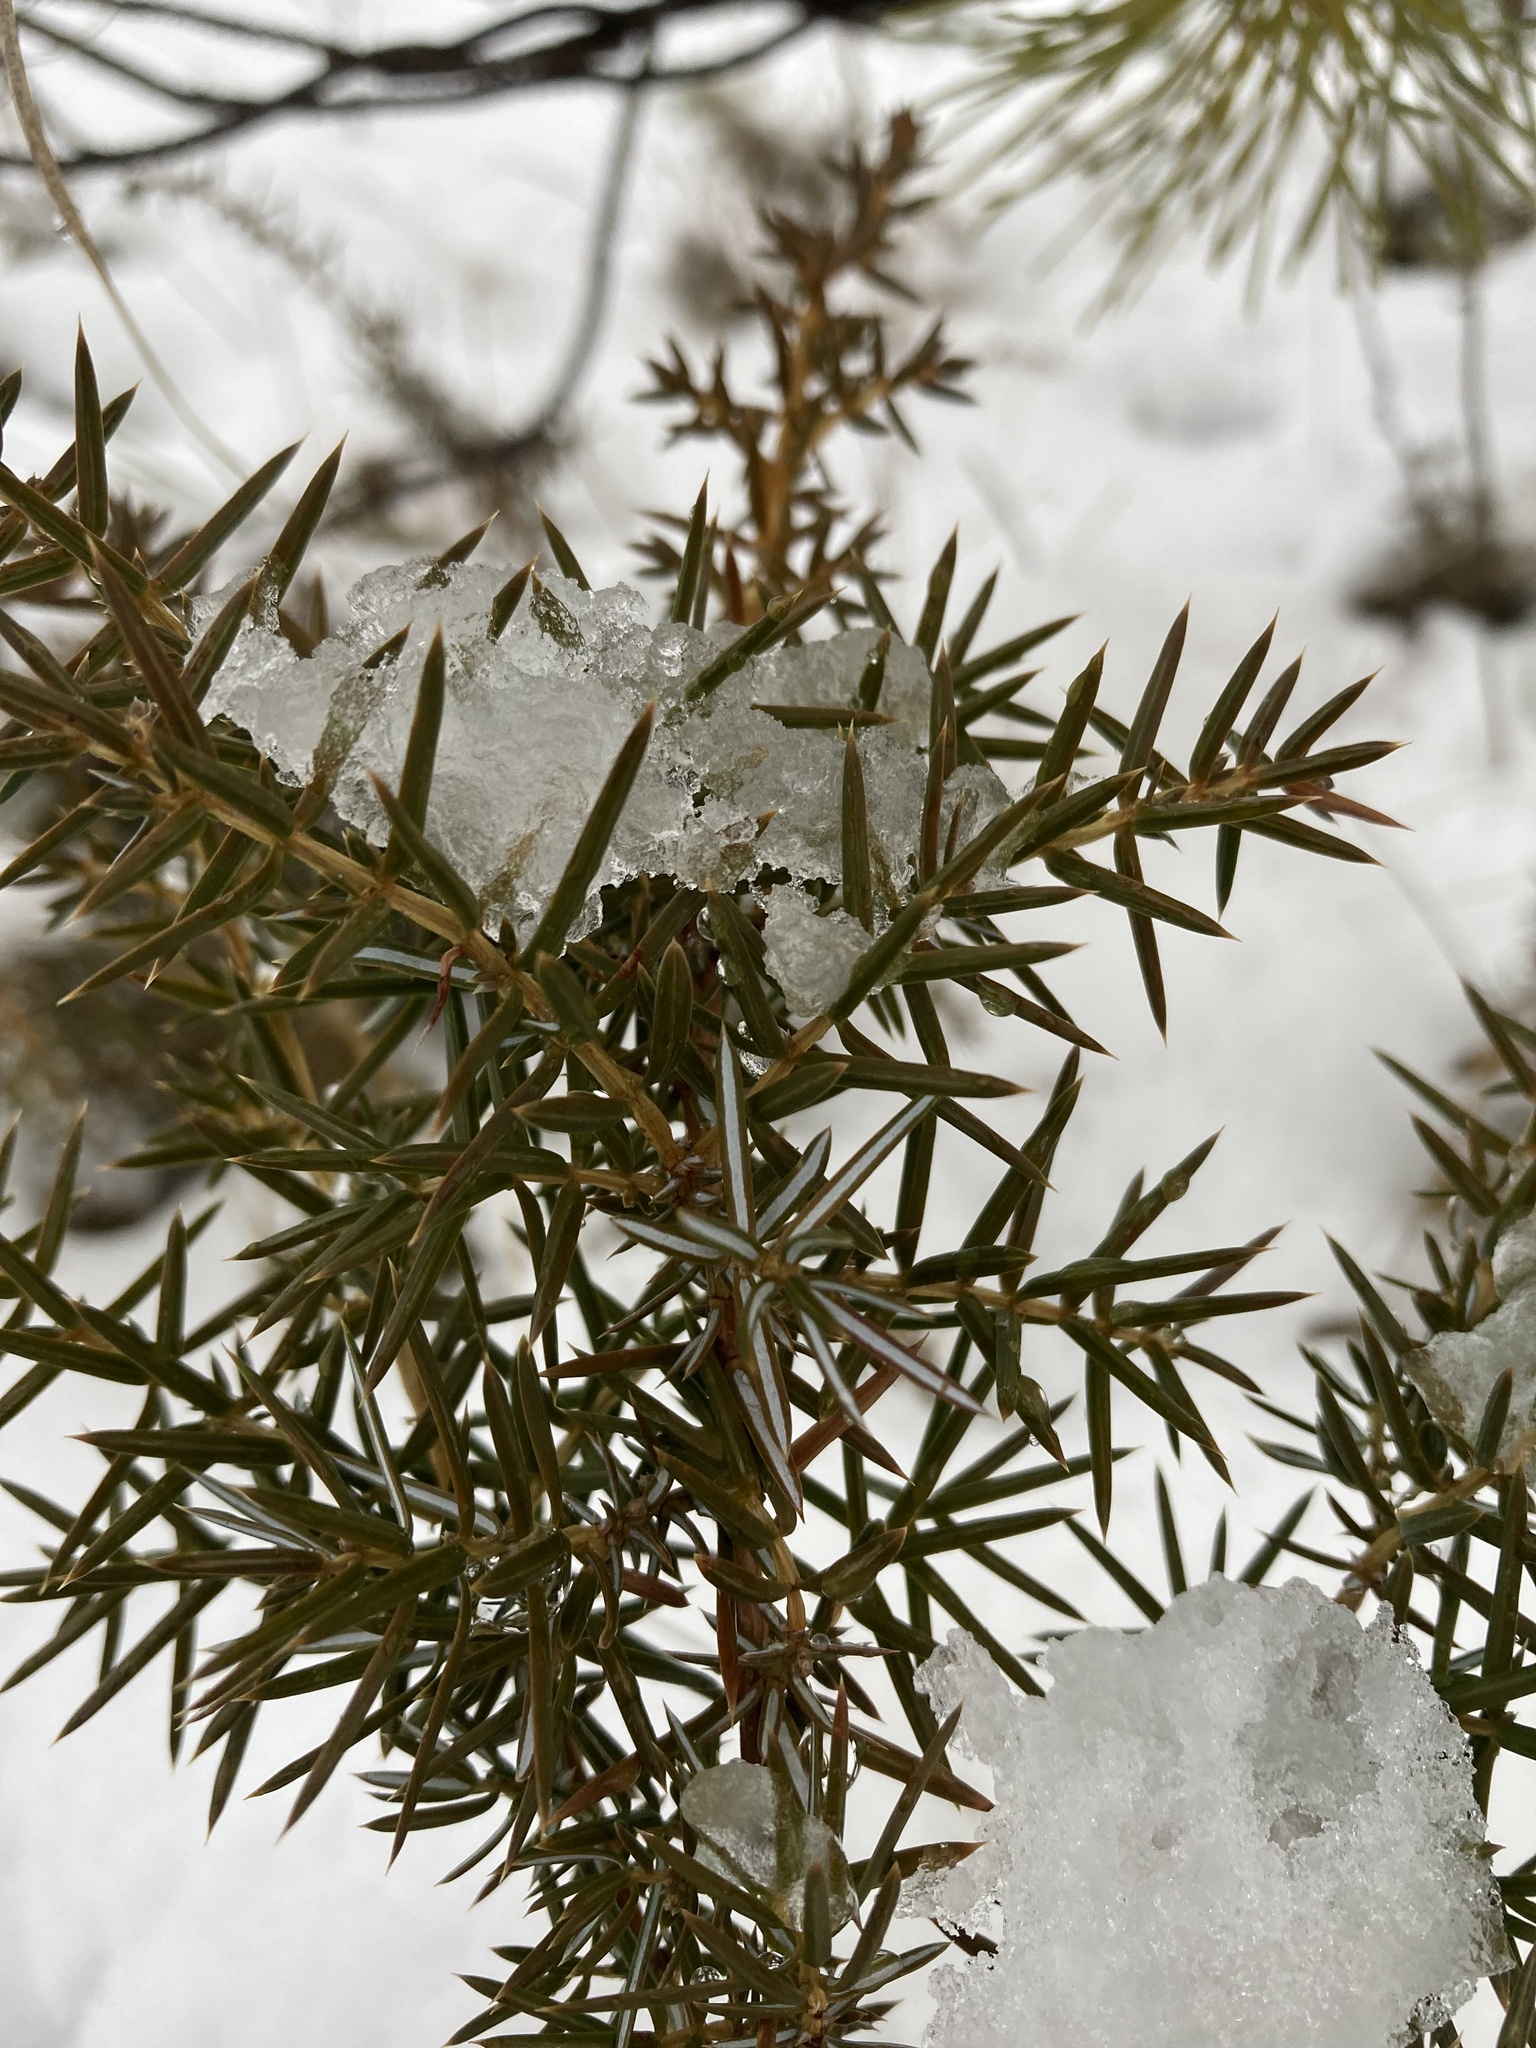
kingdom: Plantae
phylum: Tracheophyta
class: Pinopsida
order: Pinales
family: Cupressaceae
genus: Juniperus
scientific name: Juniperus communis
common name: Common juniper
